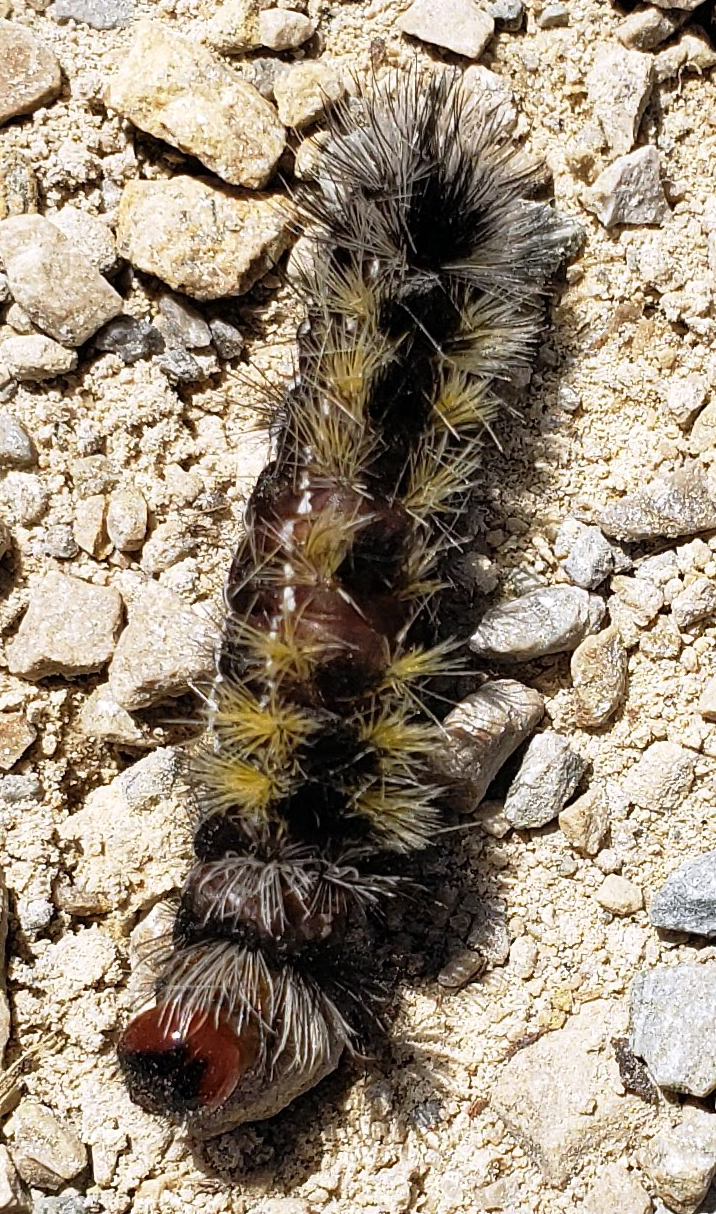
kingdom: Animalia
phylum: Arthropoda
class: Insecta
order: Lepidoptera
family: Erebidae
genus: Ctenucha
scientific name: Ctenucha virginica
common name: Virginia ctenucha moth
